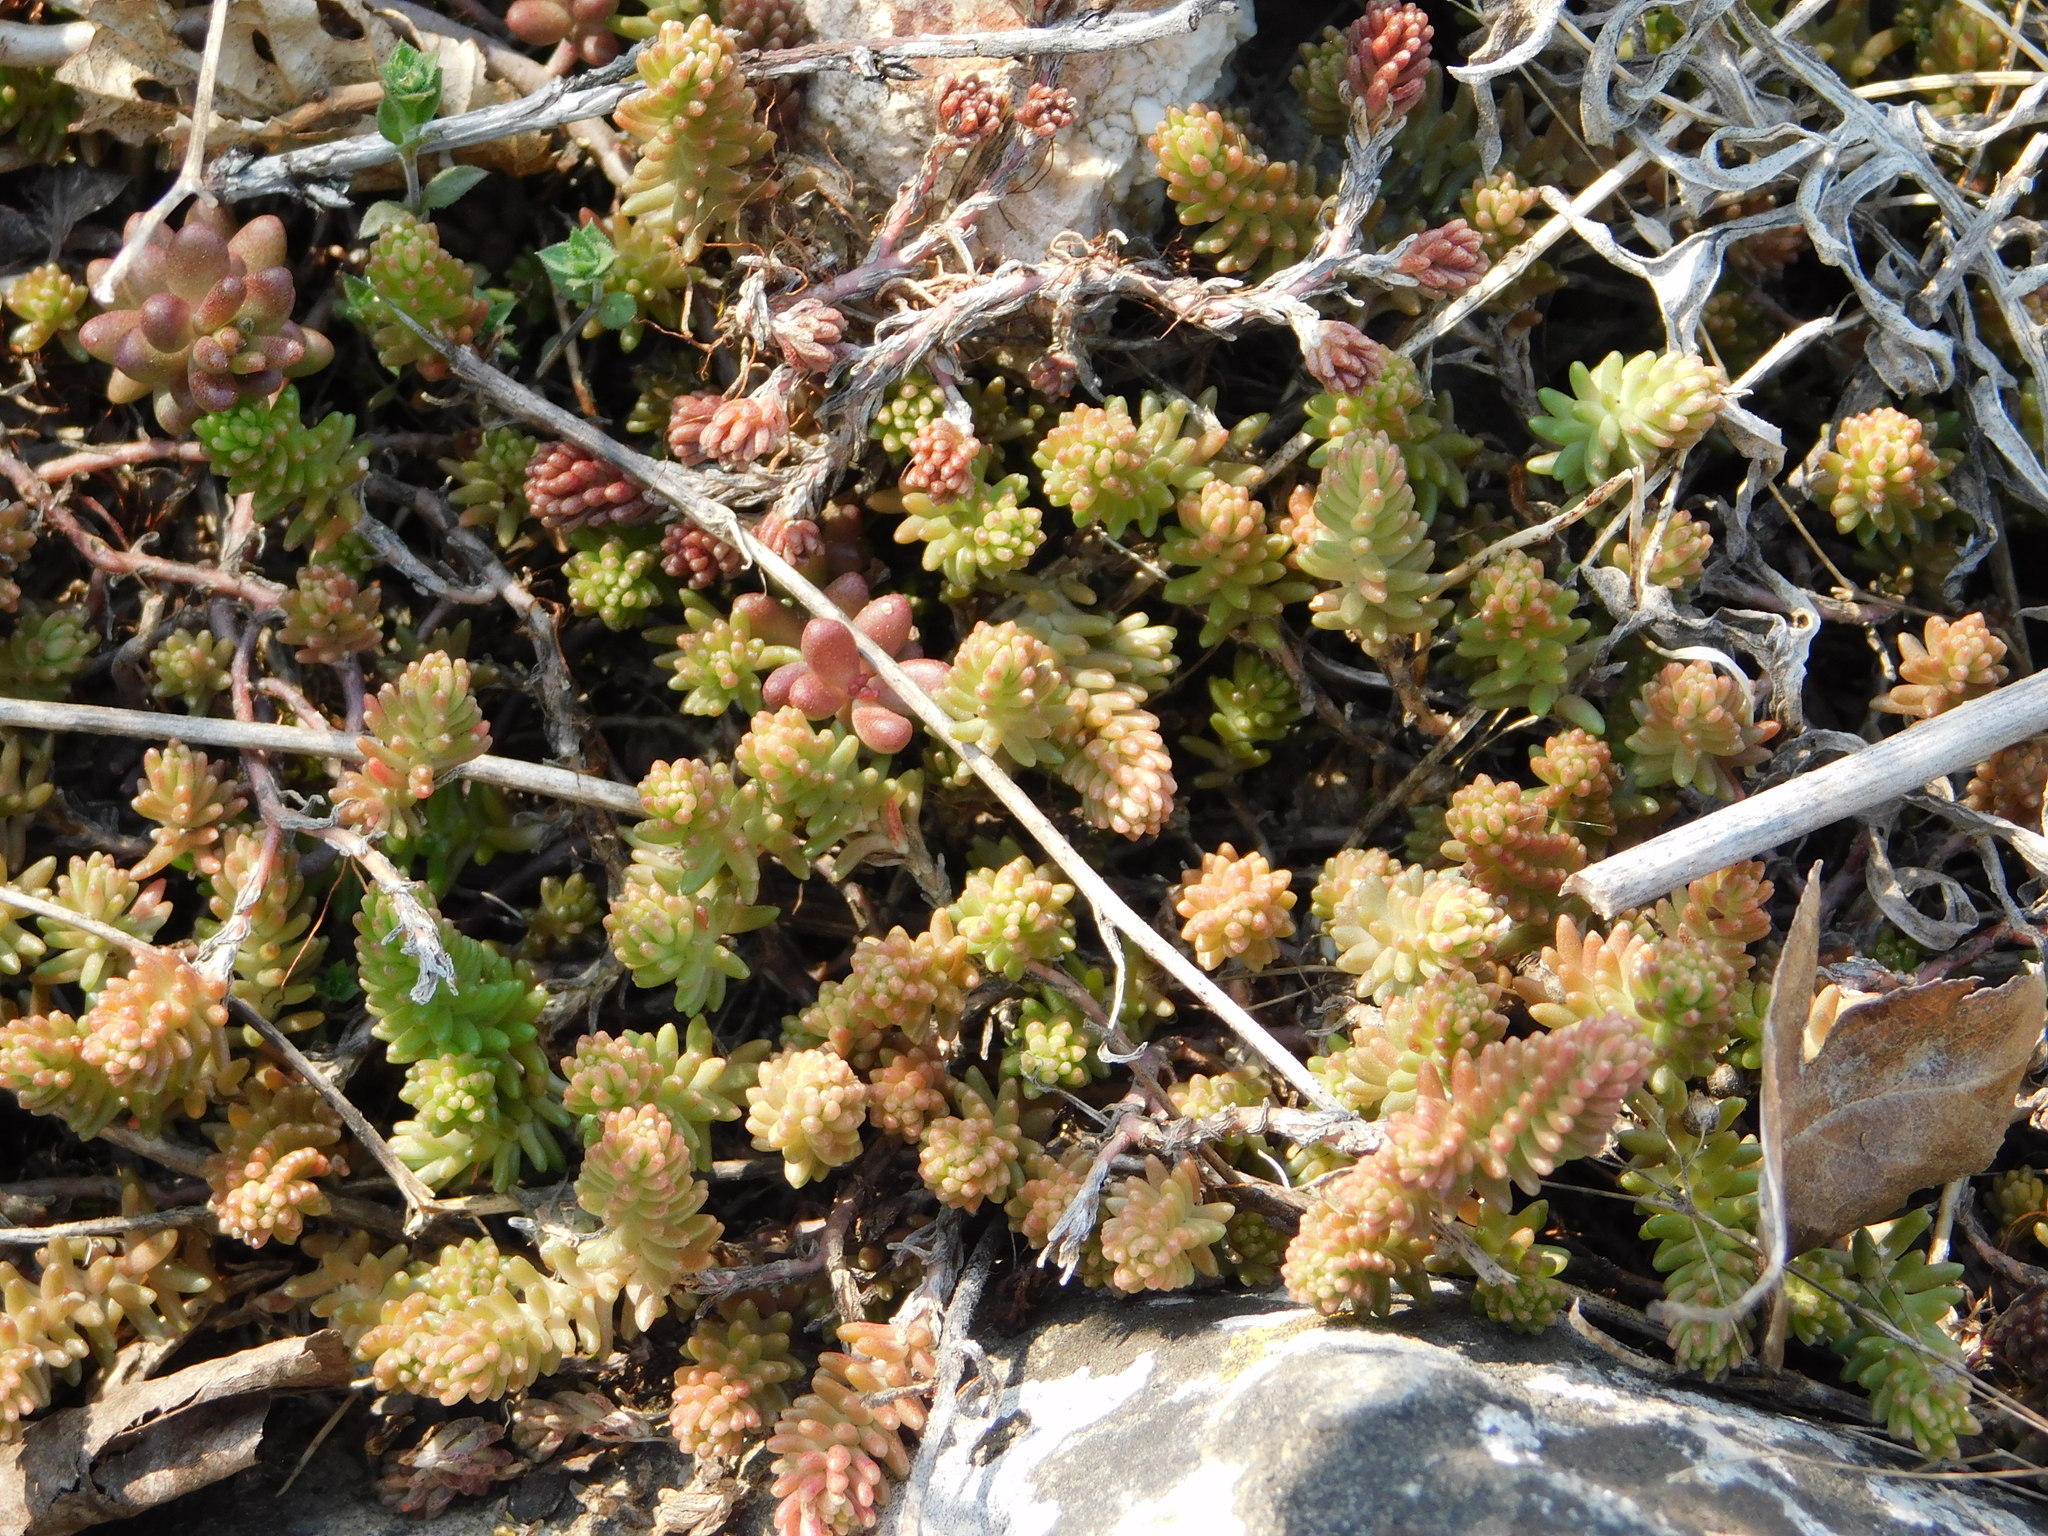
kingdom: Plantae
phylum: Tracheophyta
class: Magnoliopsida
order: Saxifragales
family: Crassulaceae
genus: Sedum
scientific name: Sedum sexangulare
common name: Tasteless stonecrop
